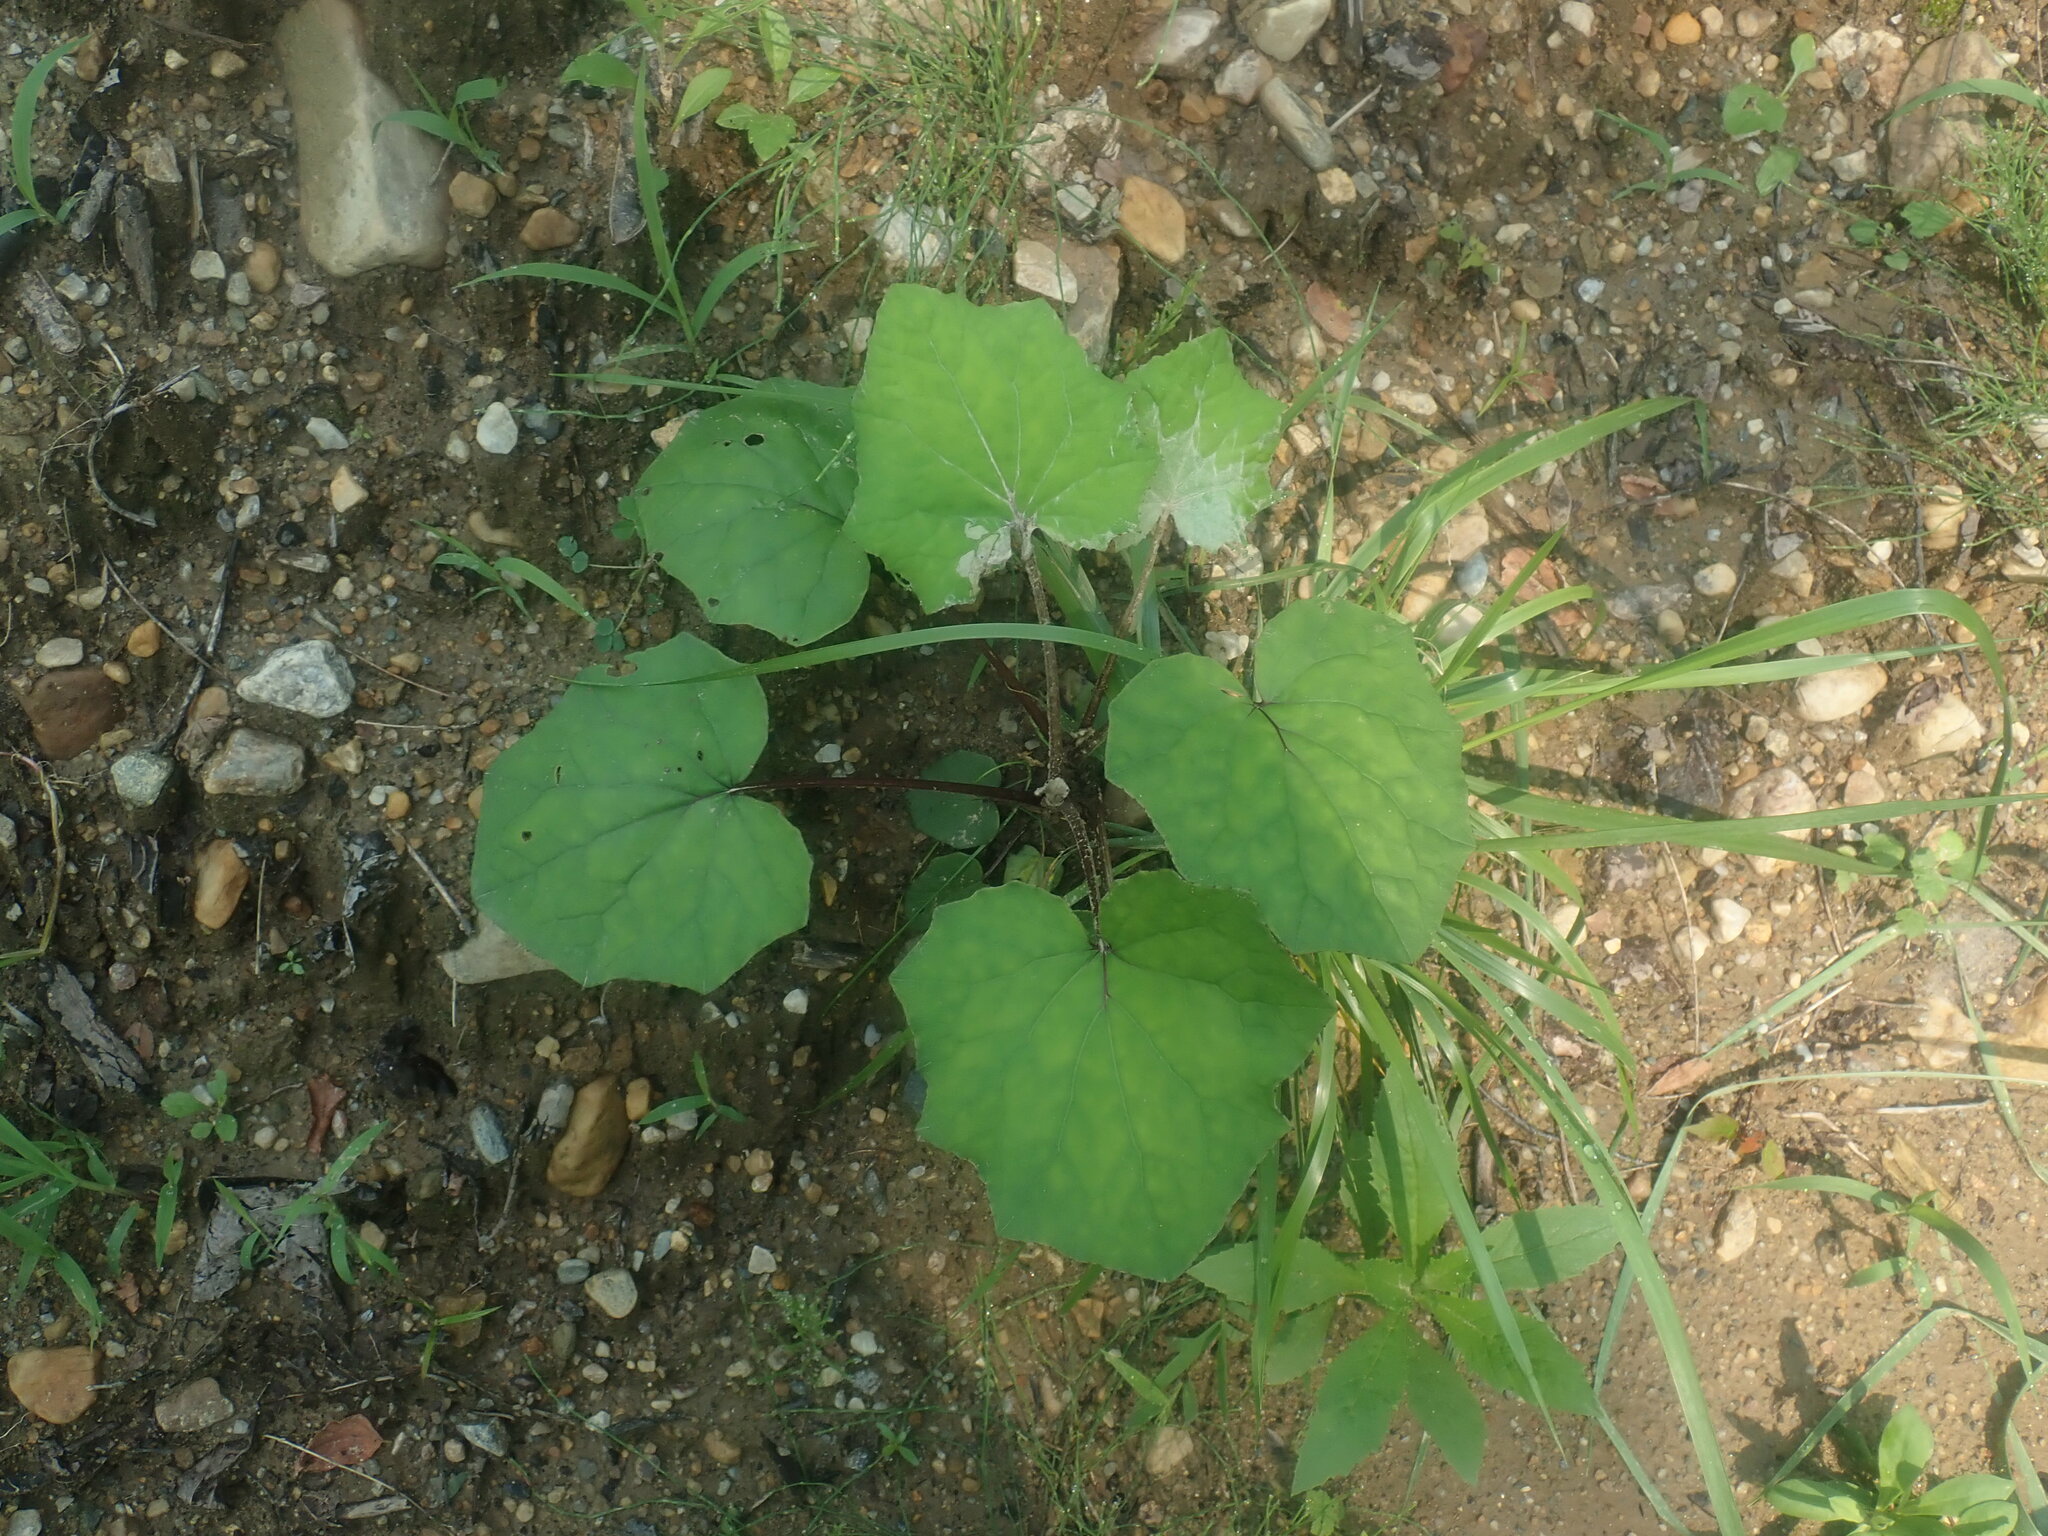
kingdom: Plantae
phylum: Tracheophyta
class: Magnoliopsida
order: Asterales
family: Asteraceae
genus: Tussilago
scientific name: Tussilago farfara
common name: Coltsfoot
